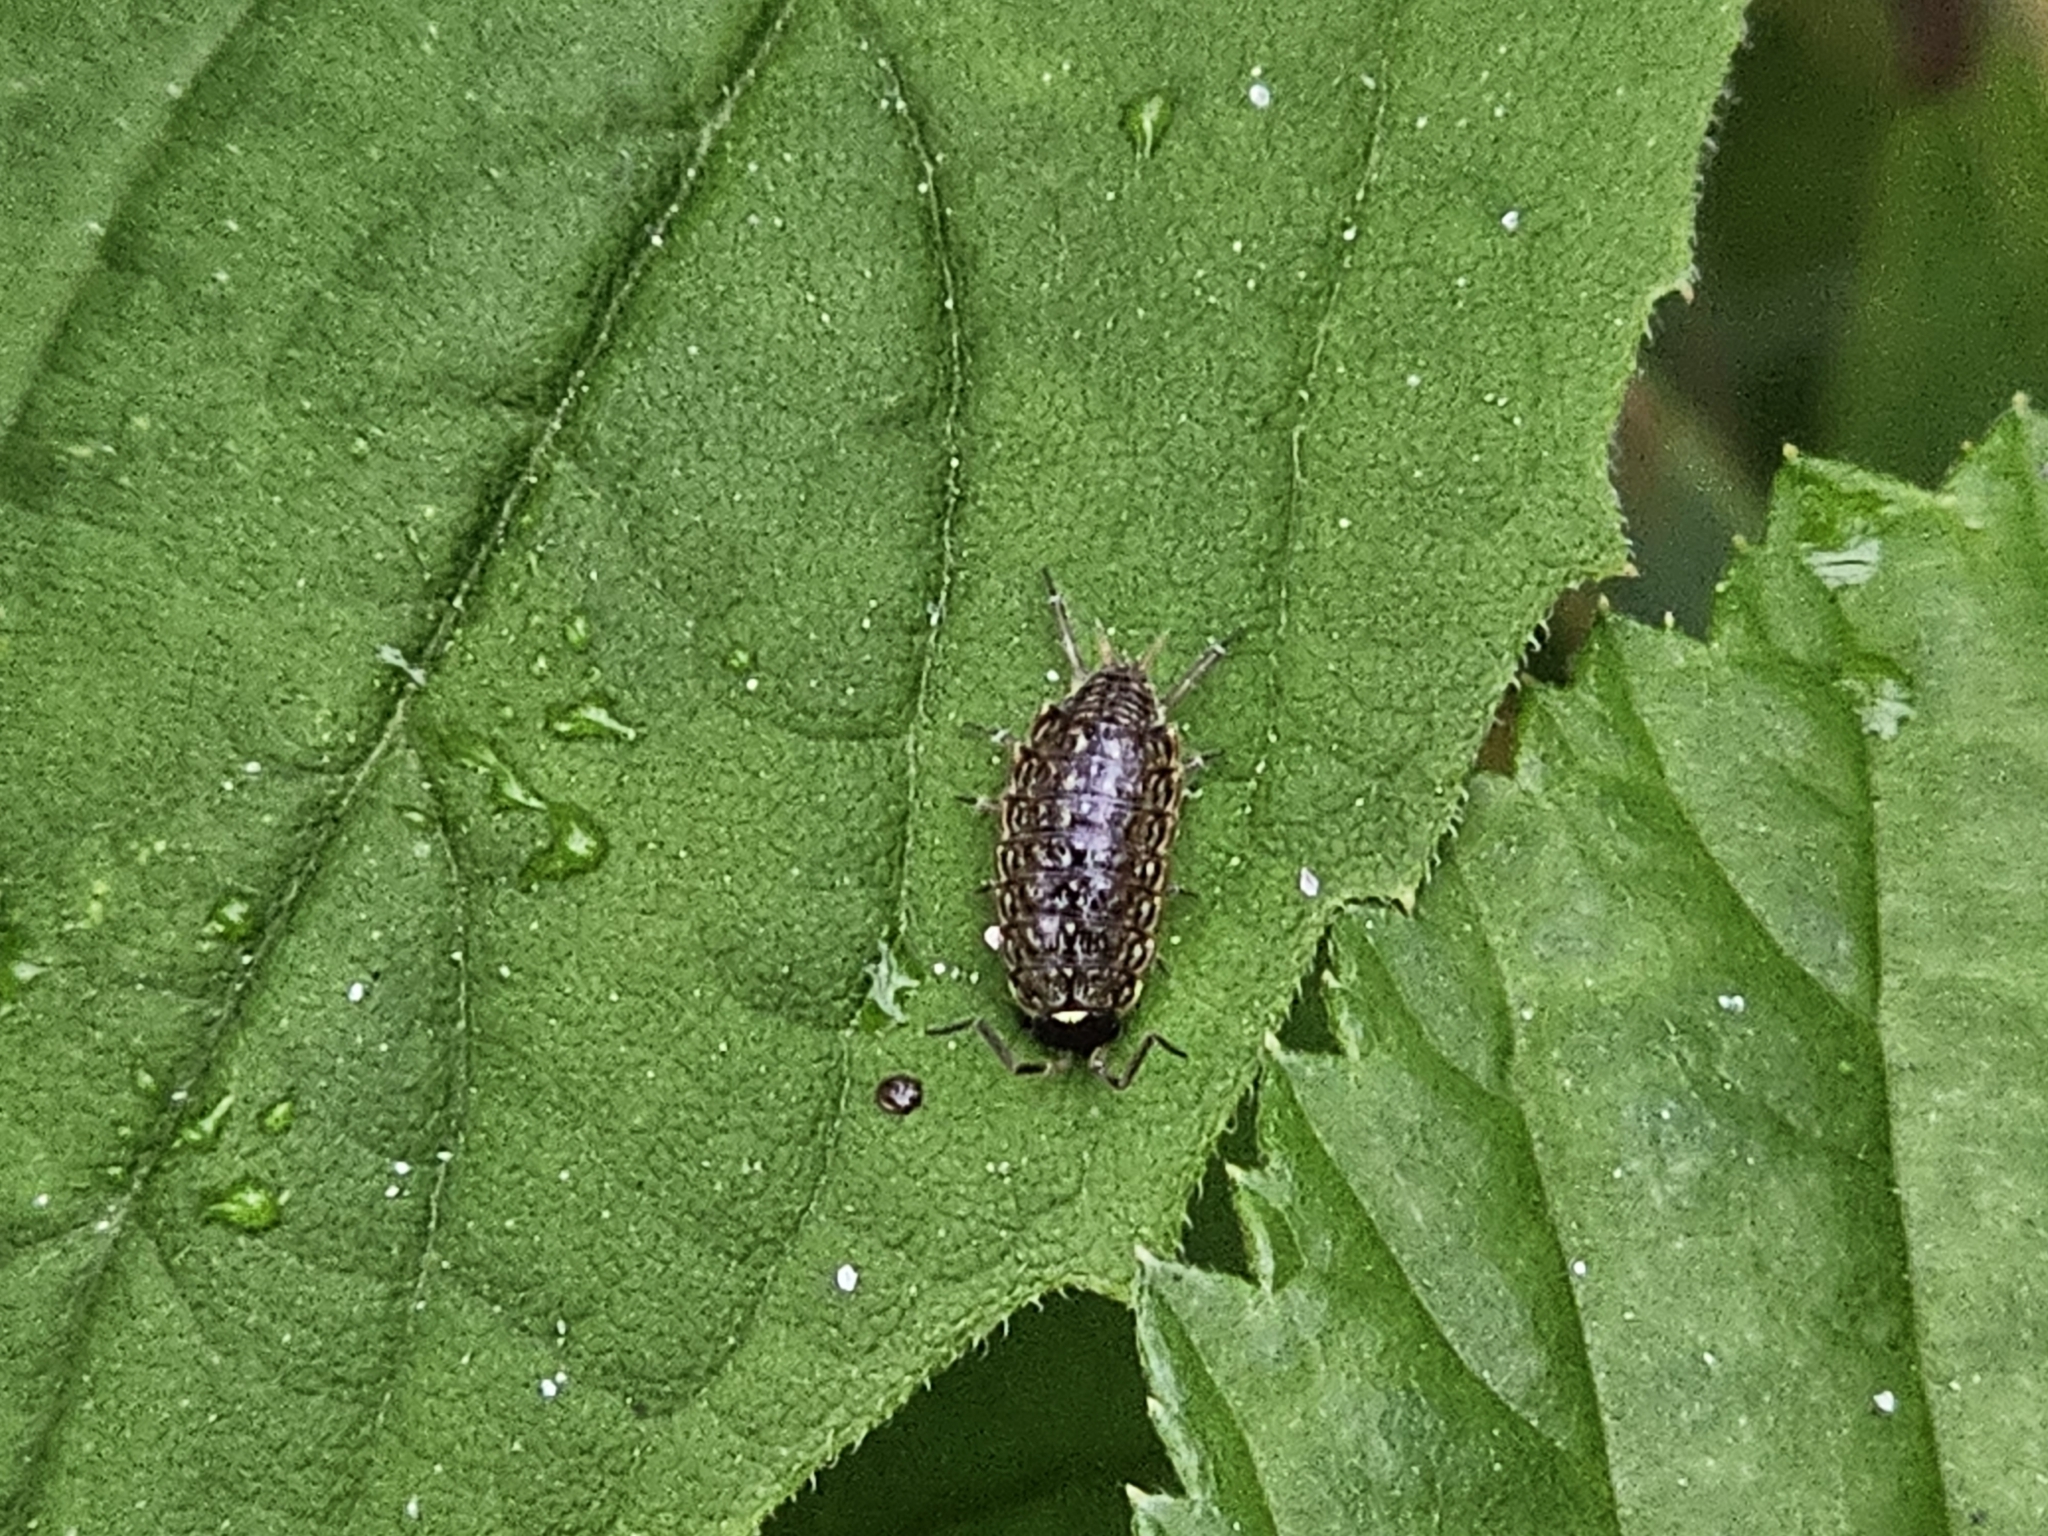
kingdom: Animalia
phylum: Arthropoda
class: Malacostraca
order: Isopoda
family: Philosciidae
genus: Philoscia
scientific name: Philoscia muscorum
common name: Common striped woodlouse
